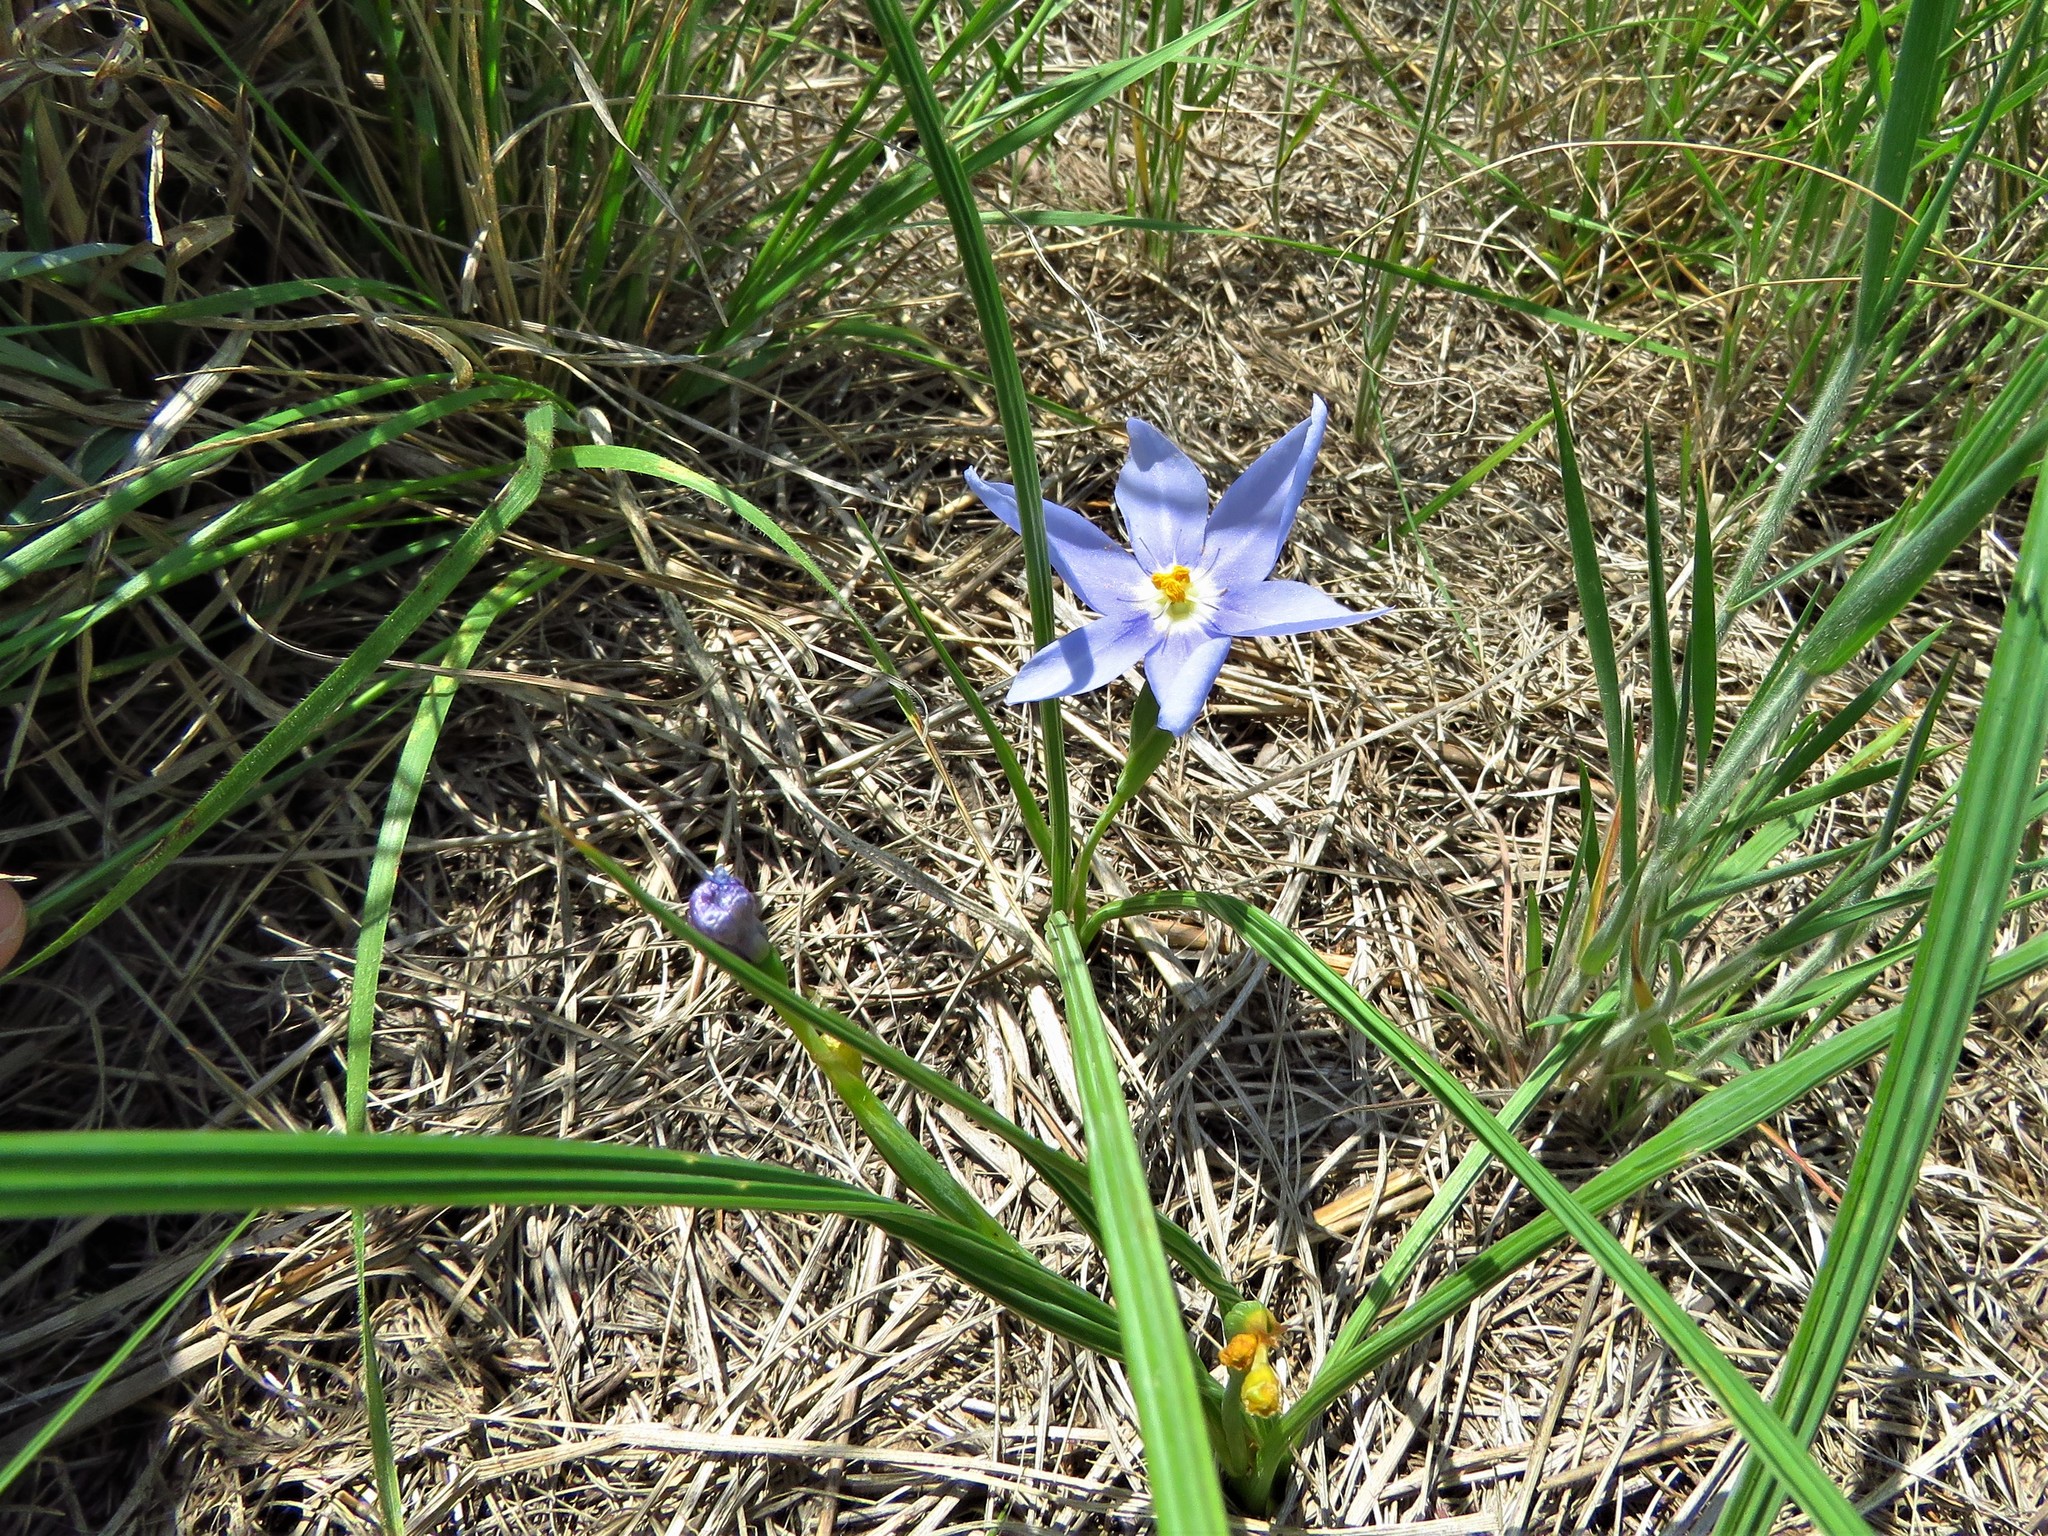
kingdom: Plantae
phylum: Tracheophyta
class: Liliopsida
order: Asparagales
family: Iridaceae
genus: Nemastylis
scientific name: Nemastylis geminiflora
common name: Prairie celestial
